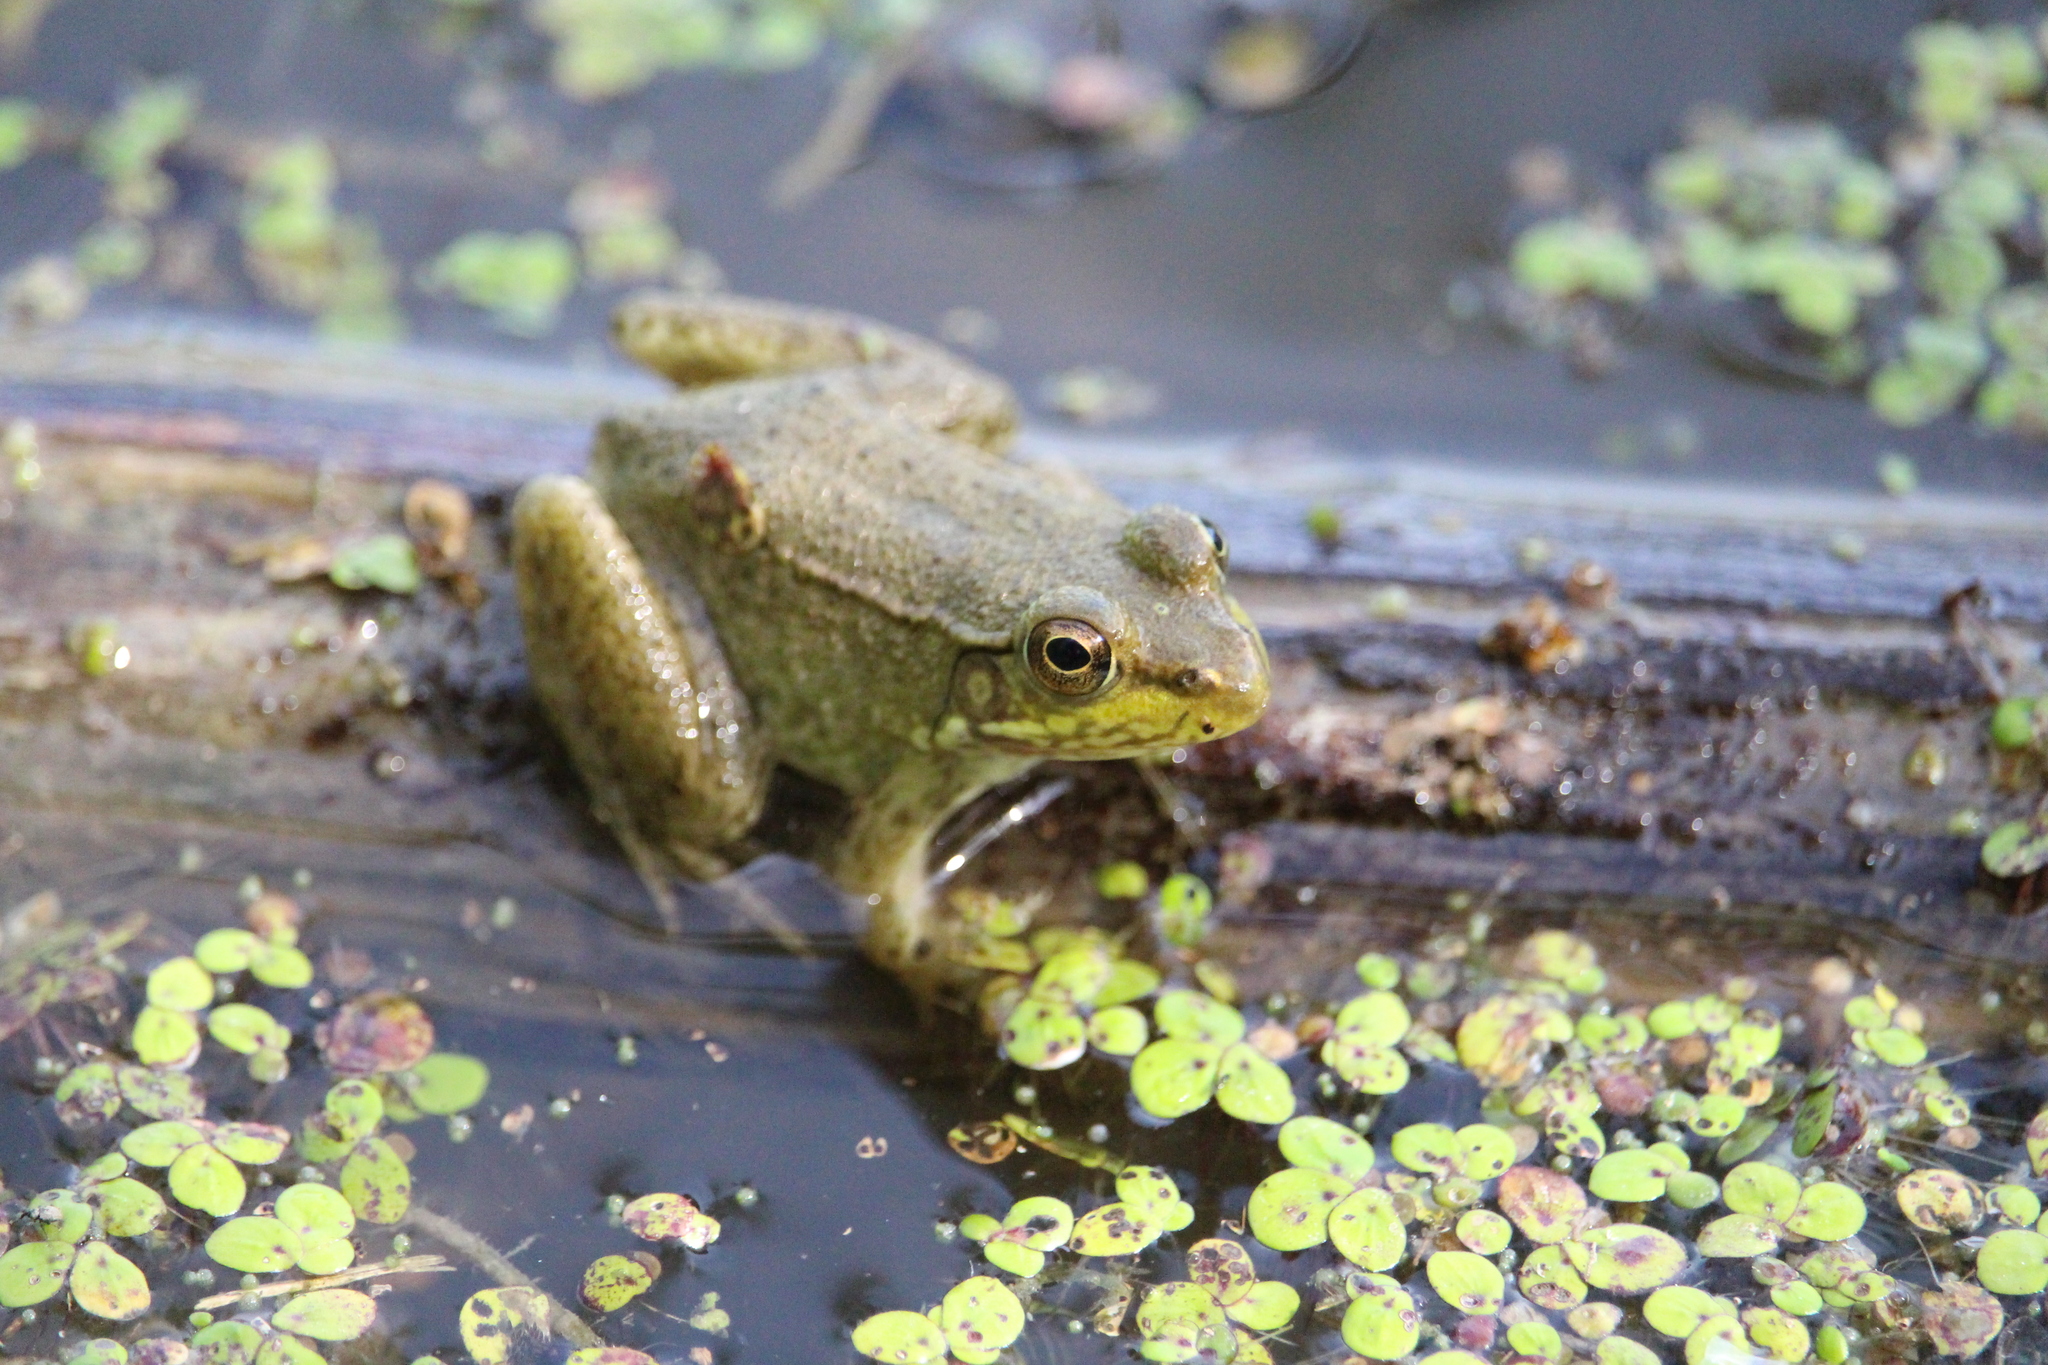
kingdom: Animalia
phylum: Chordata
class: Amphibia
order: Anura
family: Ranidae
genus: Lithobates
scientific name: Lithobates clamitans
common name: Green frog
